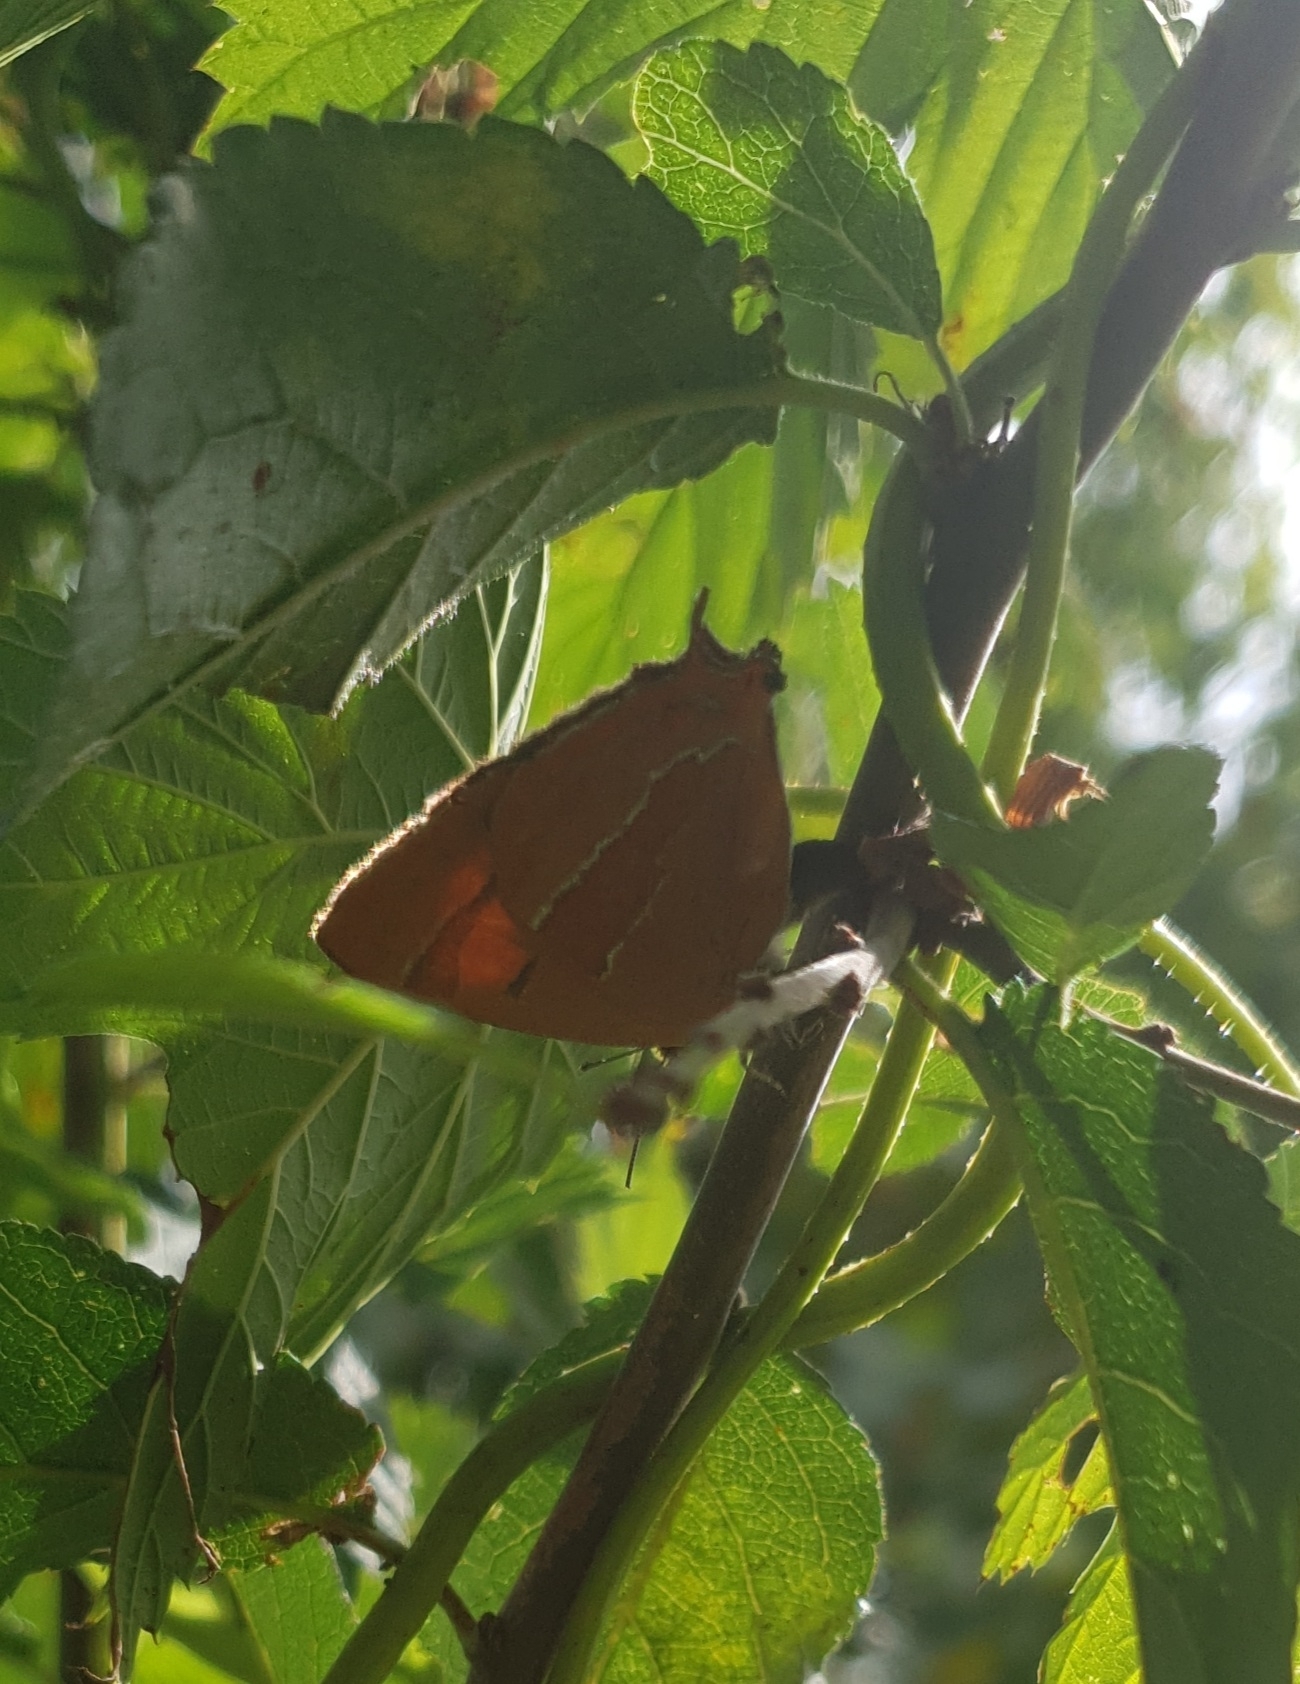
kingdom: Animalia
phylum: Arthropoda
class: Insecta
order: Lepidoptera
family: Lycaenidae
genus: Thecla
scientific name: Thecla betulae
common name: Brown hairstreak
